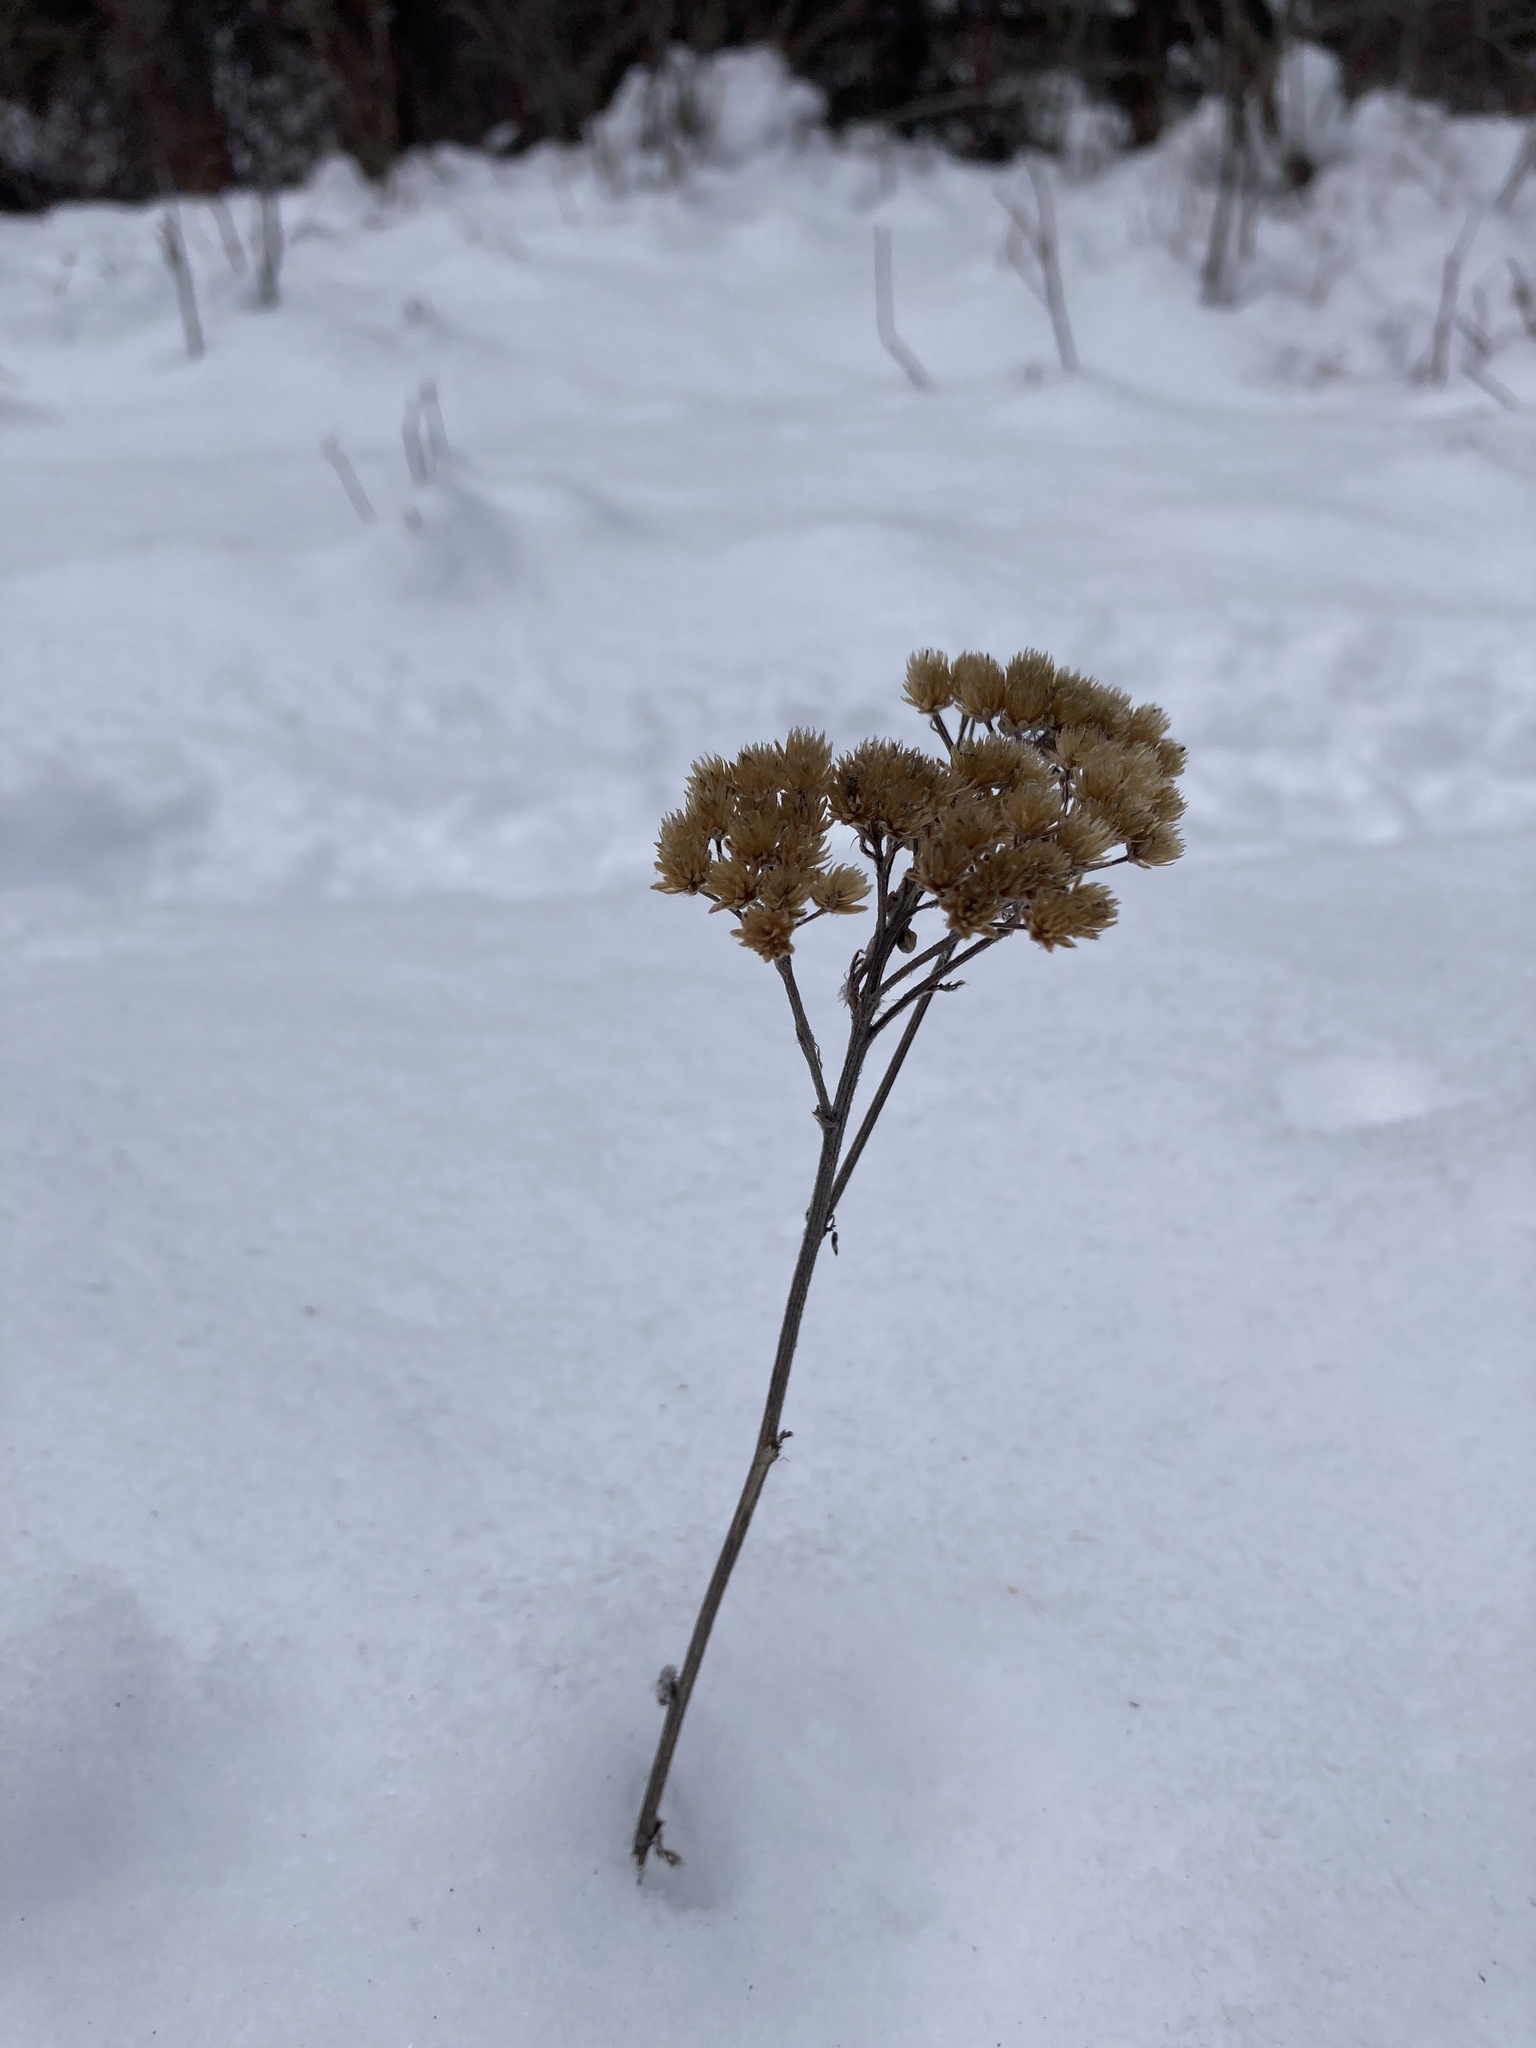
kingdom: Plantae
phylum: Tracheophyta
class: Magnoliopsida
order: Asterales
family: Asteraceae
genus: Achillea
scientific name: Achillea millefolium
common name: Yarrow
